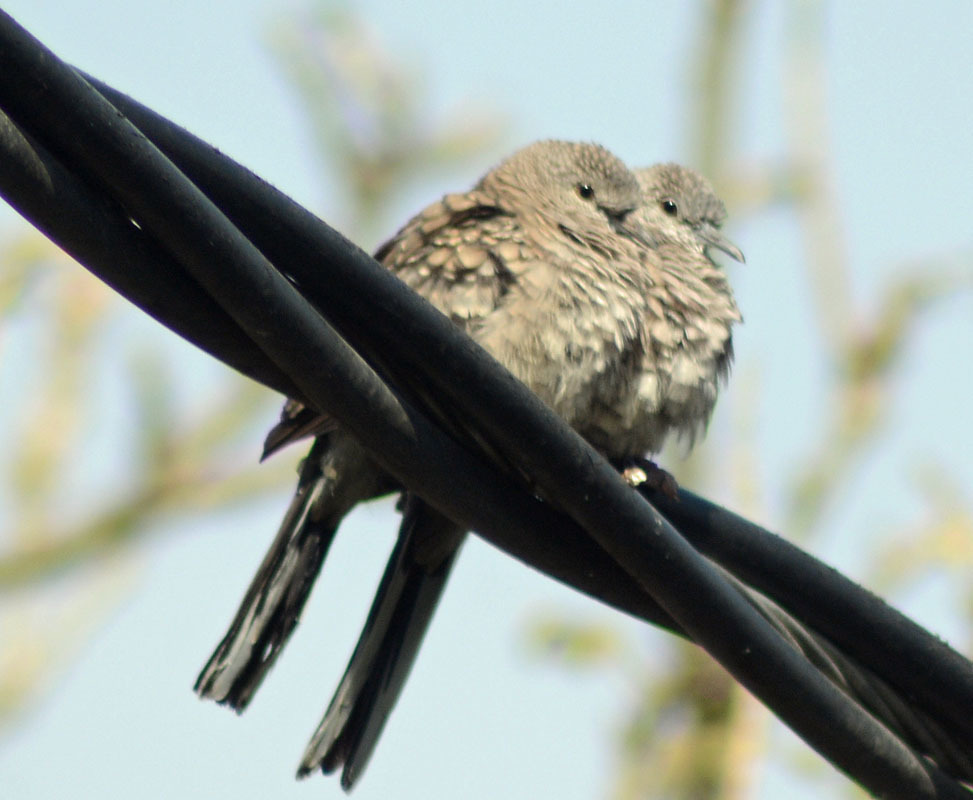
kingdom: Animalia
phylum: Chordata
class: Aves
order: Columbiformes
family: Columbidae
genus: Columbina
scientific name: Columbina inca
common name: Inca dove
